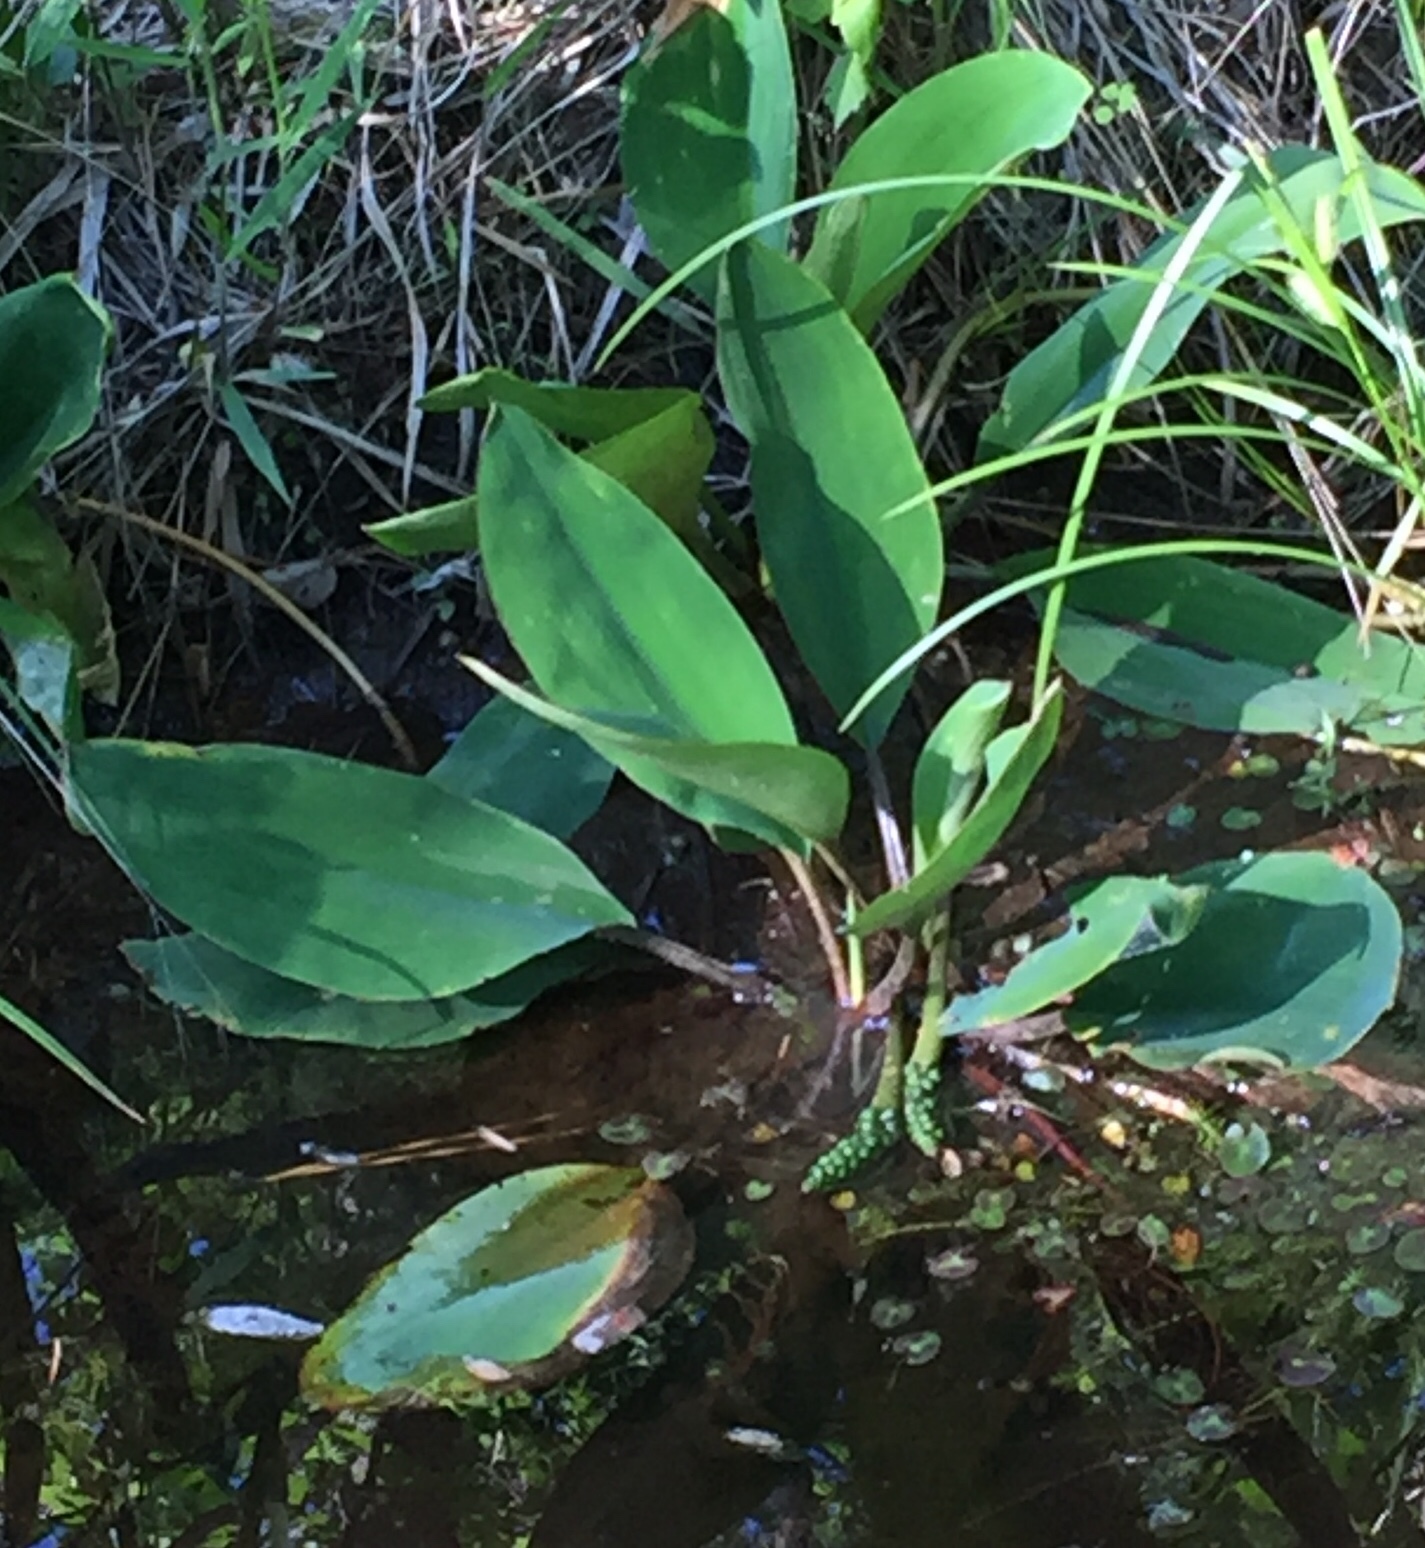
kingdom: Plantae
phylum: Tracheophyta
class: Liliopsida
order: Alismatales
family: Araceae
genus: Orontium
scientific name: Orontium aquaticum
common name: Golden-club
